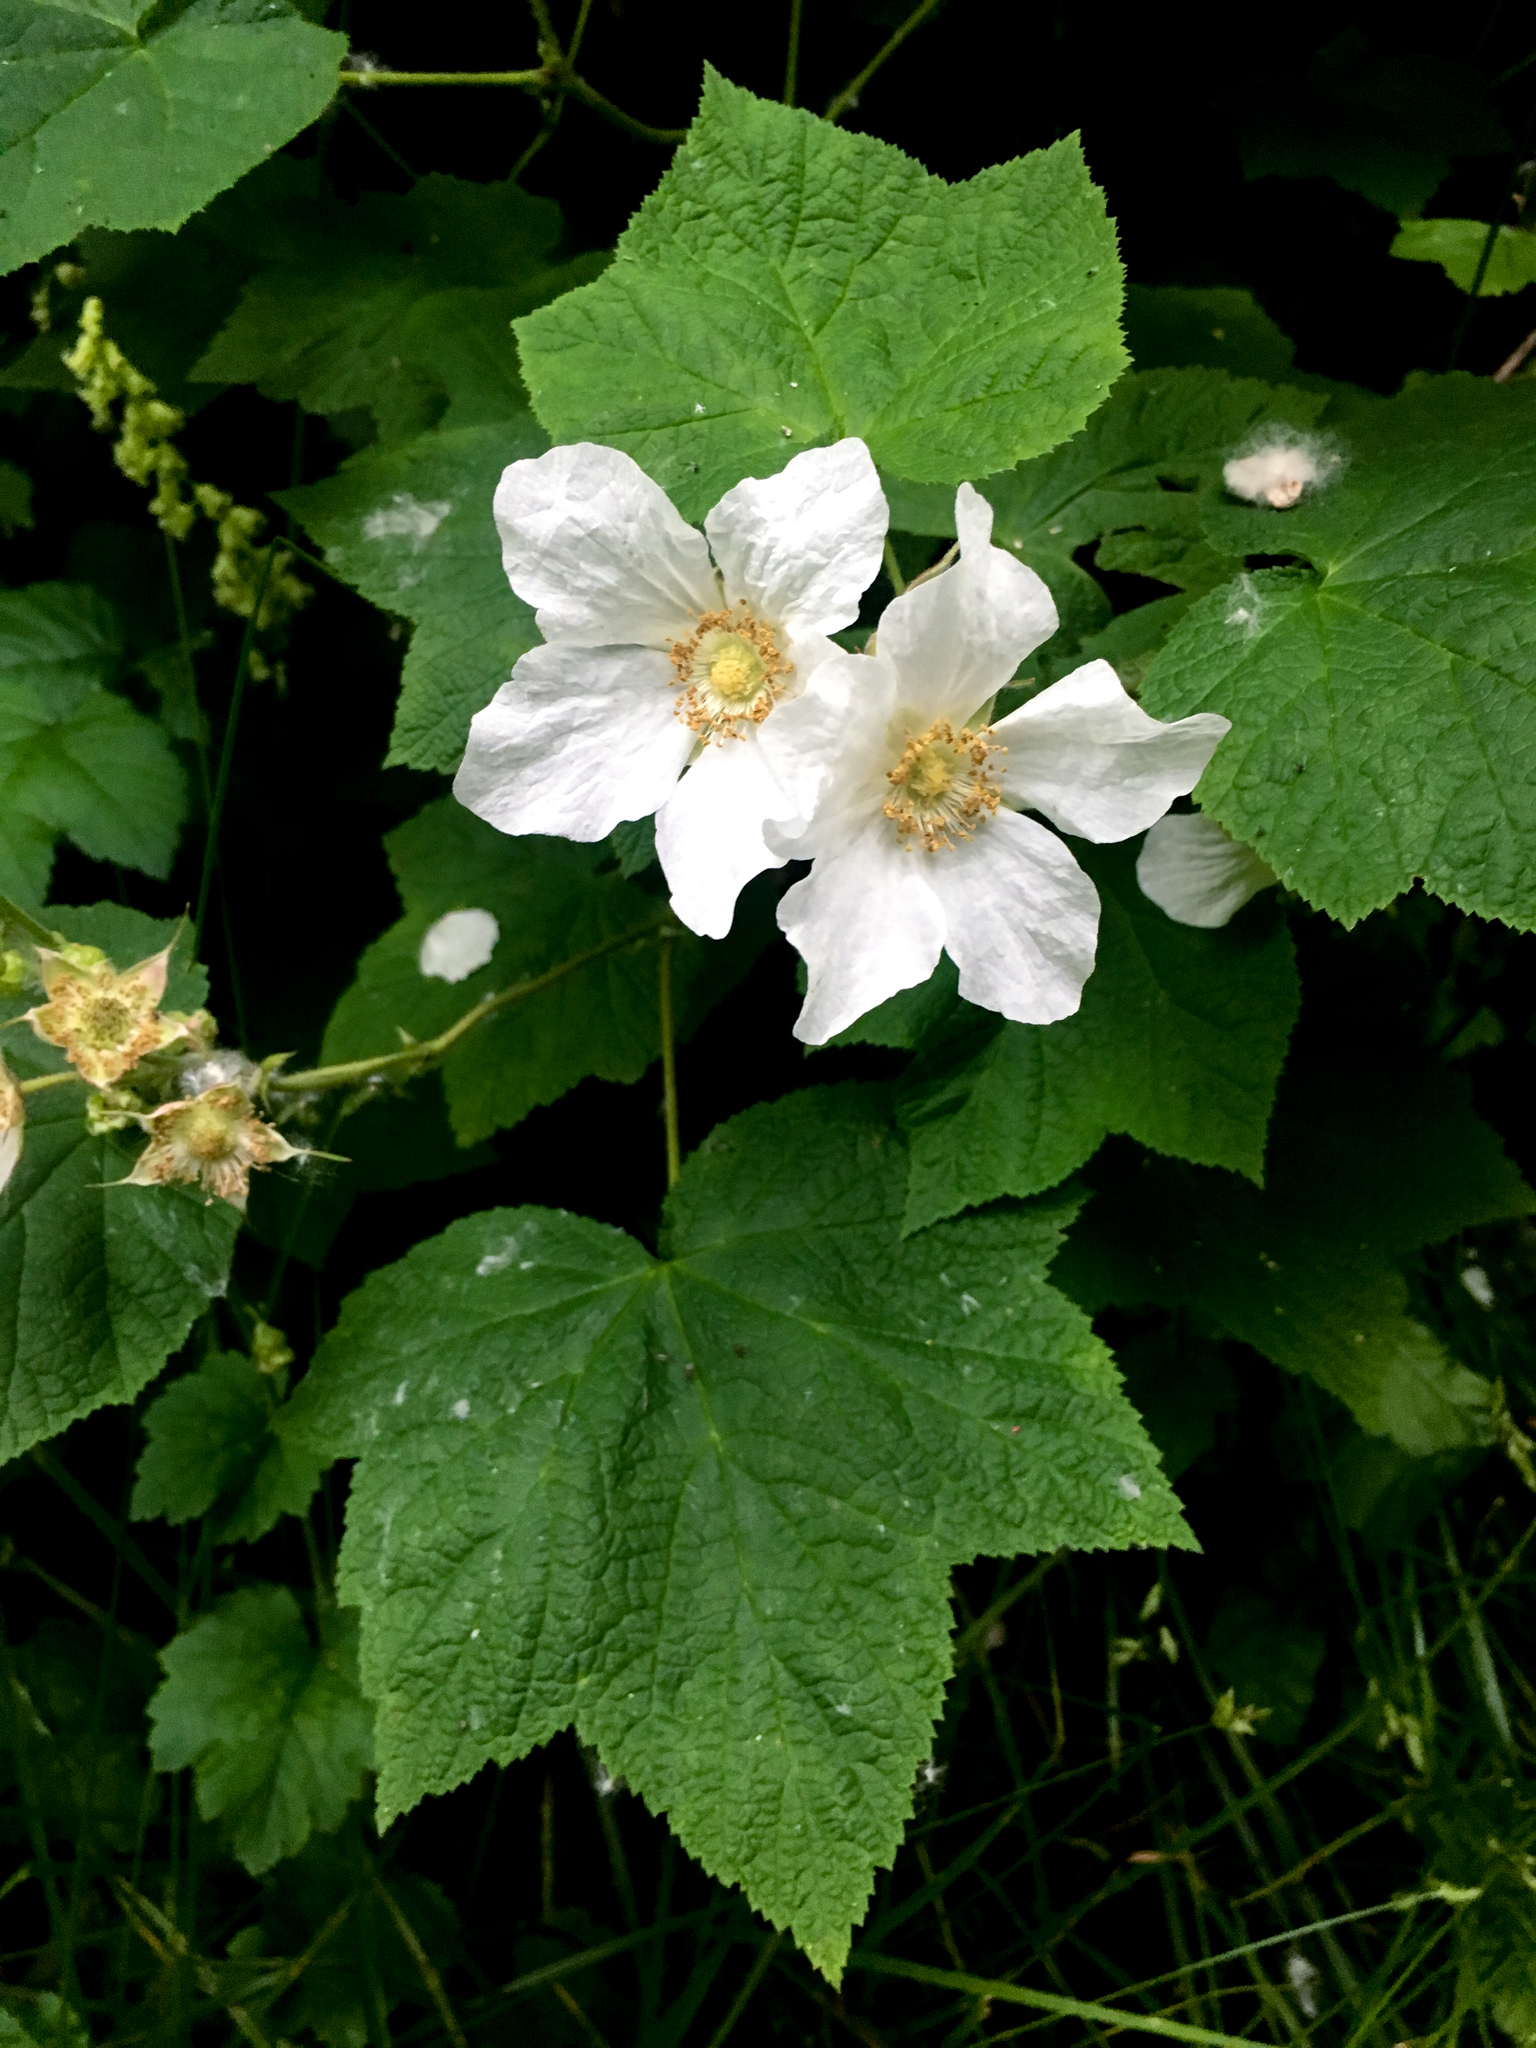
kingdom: Plantae
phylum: Tracheophyta
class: Magnoliopsida
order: Rosales
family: Rosaceae
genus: Rubus
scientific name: Rubus parviflorus
